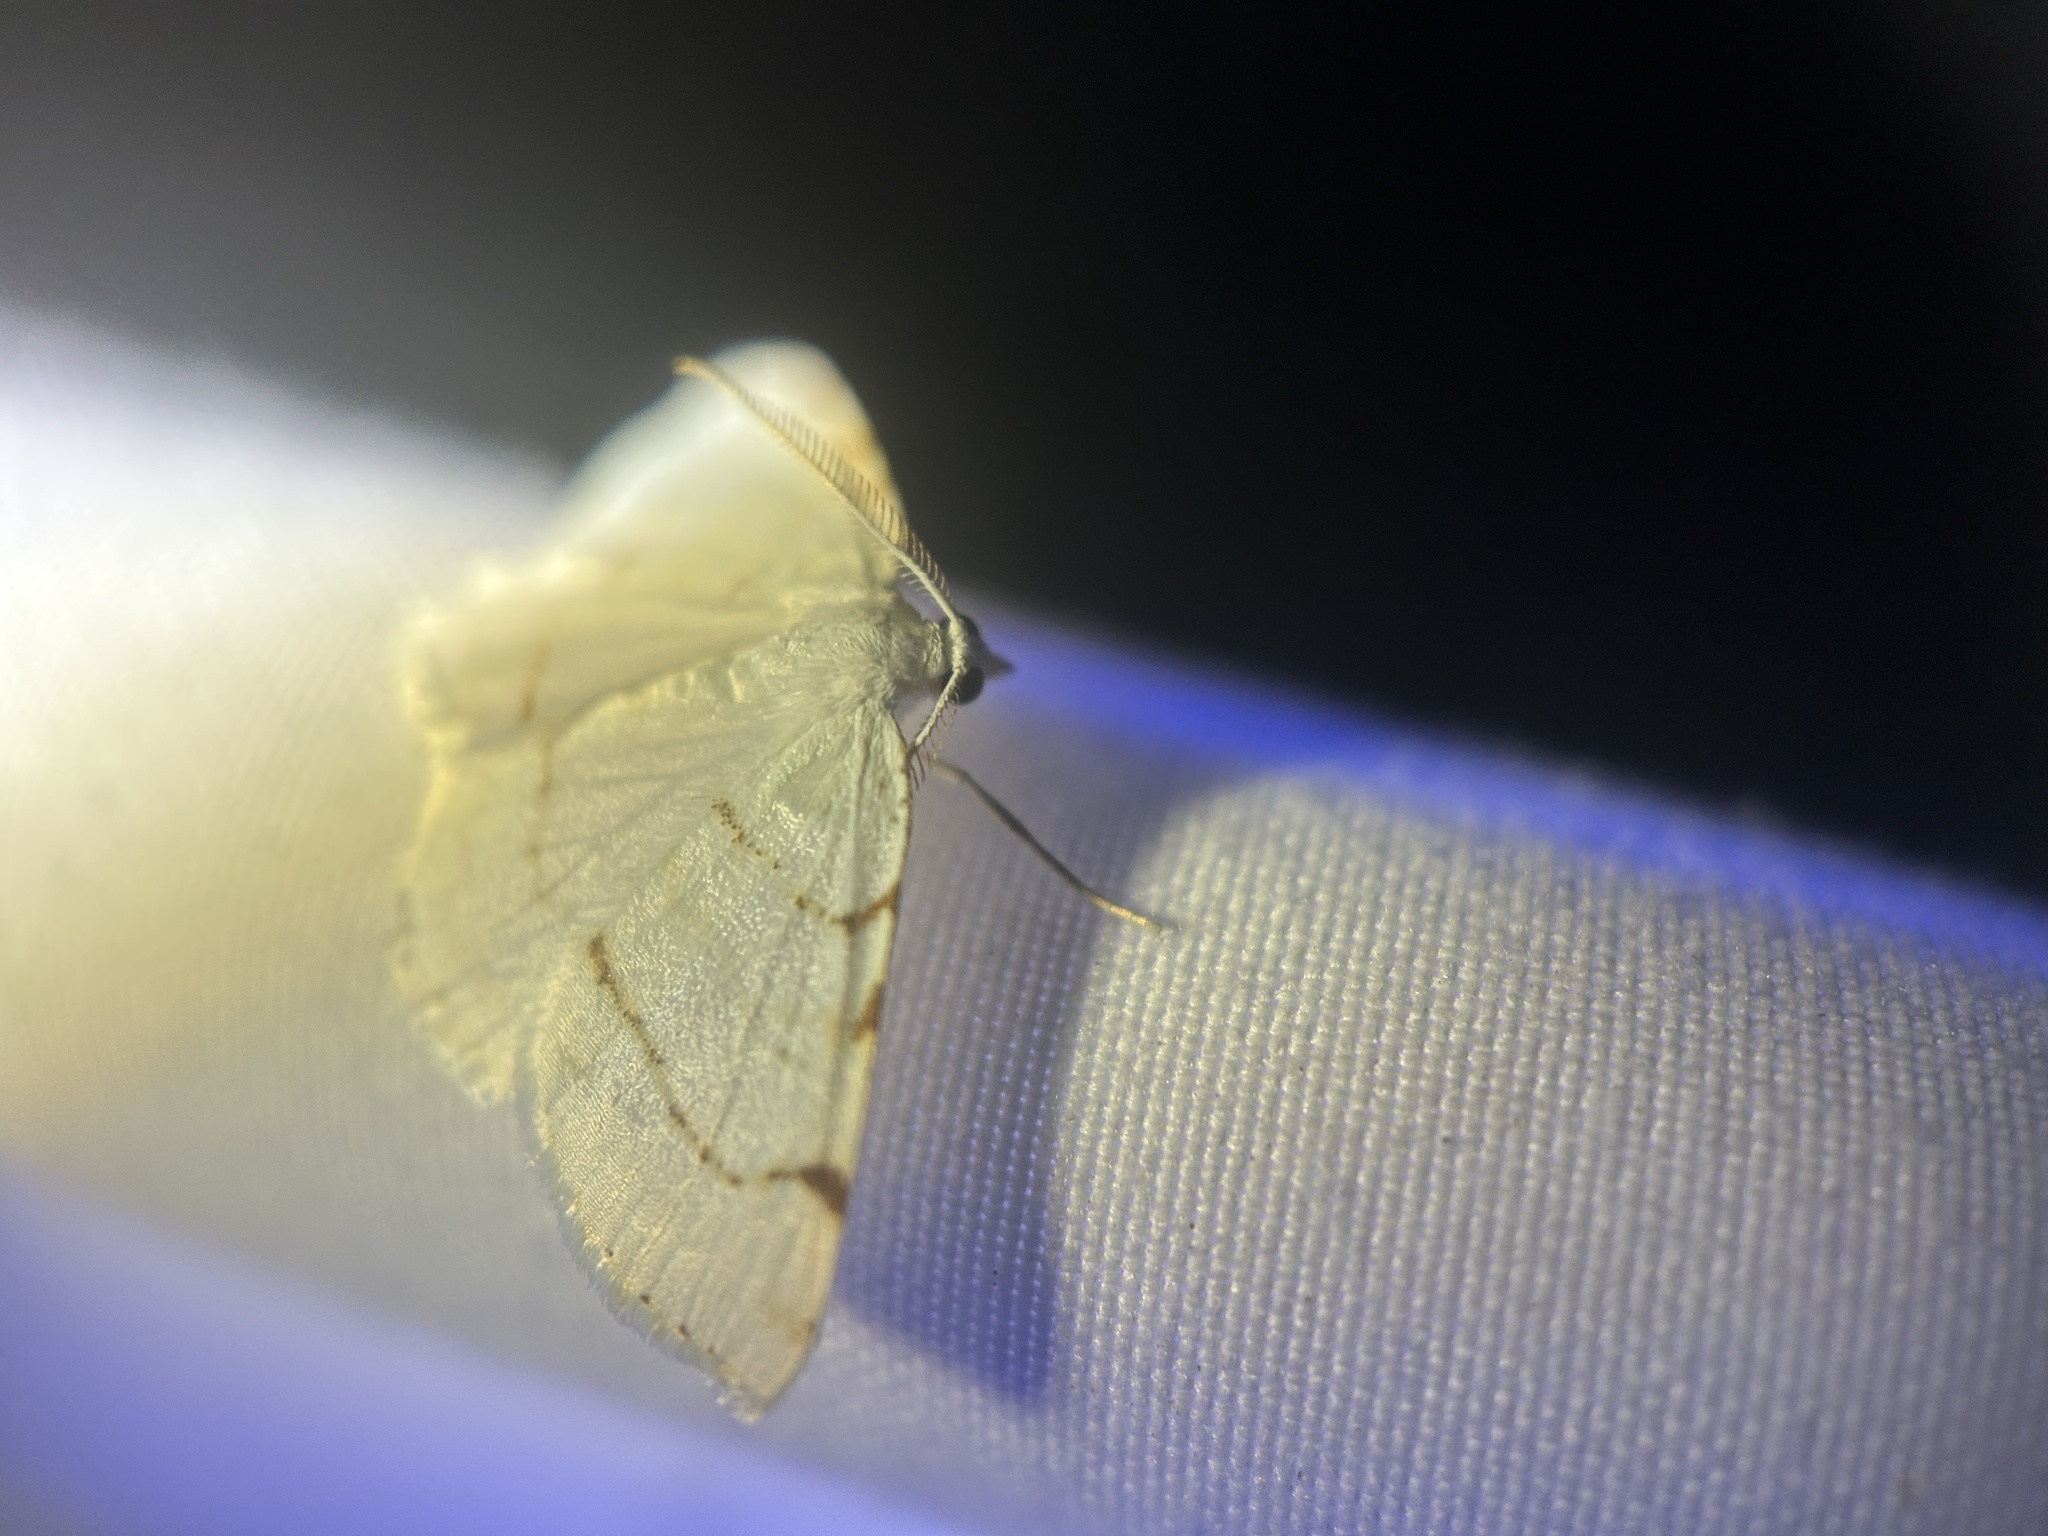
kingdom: Animalia
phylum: Arthropoda
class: Insecta
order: Lepidoptera
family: Geometridae
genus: Macaria
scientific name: Macaria pustularia
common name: Lesser maple spanworm moth
